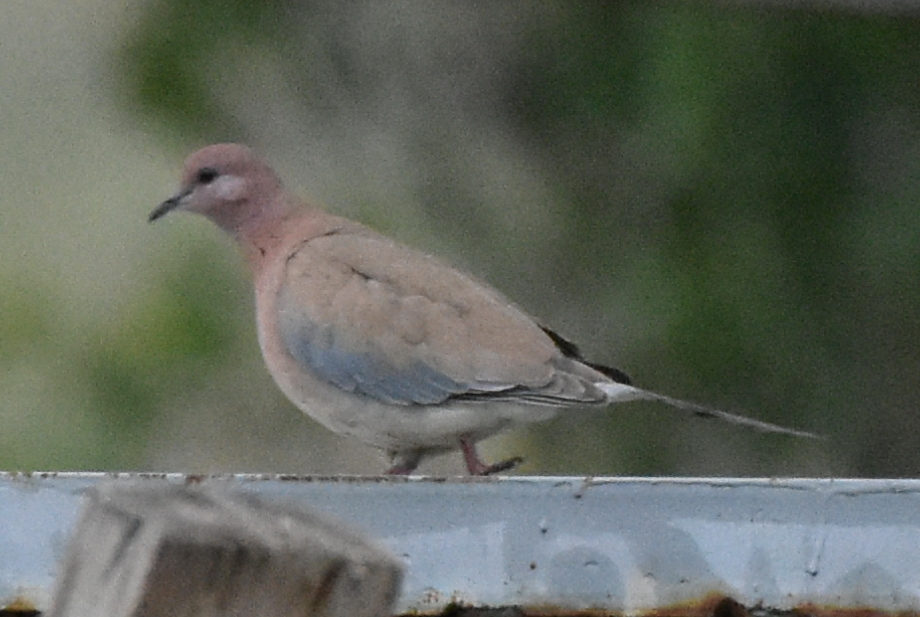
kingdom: Animalia
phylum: Chordata
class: Aves
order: Columbiformes
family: Columbidae
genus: Spilopelia
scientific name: Spilopelia senegalensis
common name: Laughing dove
